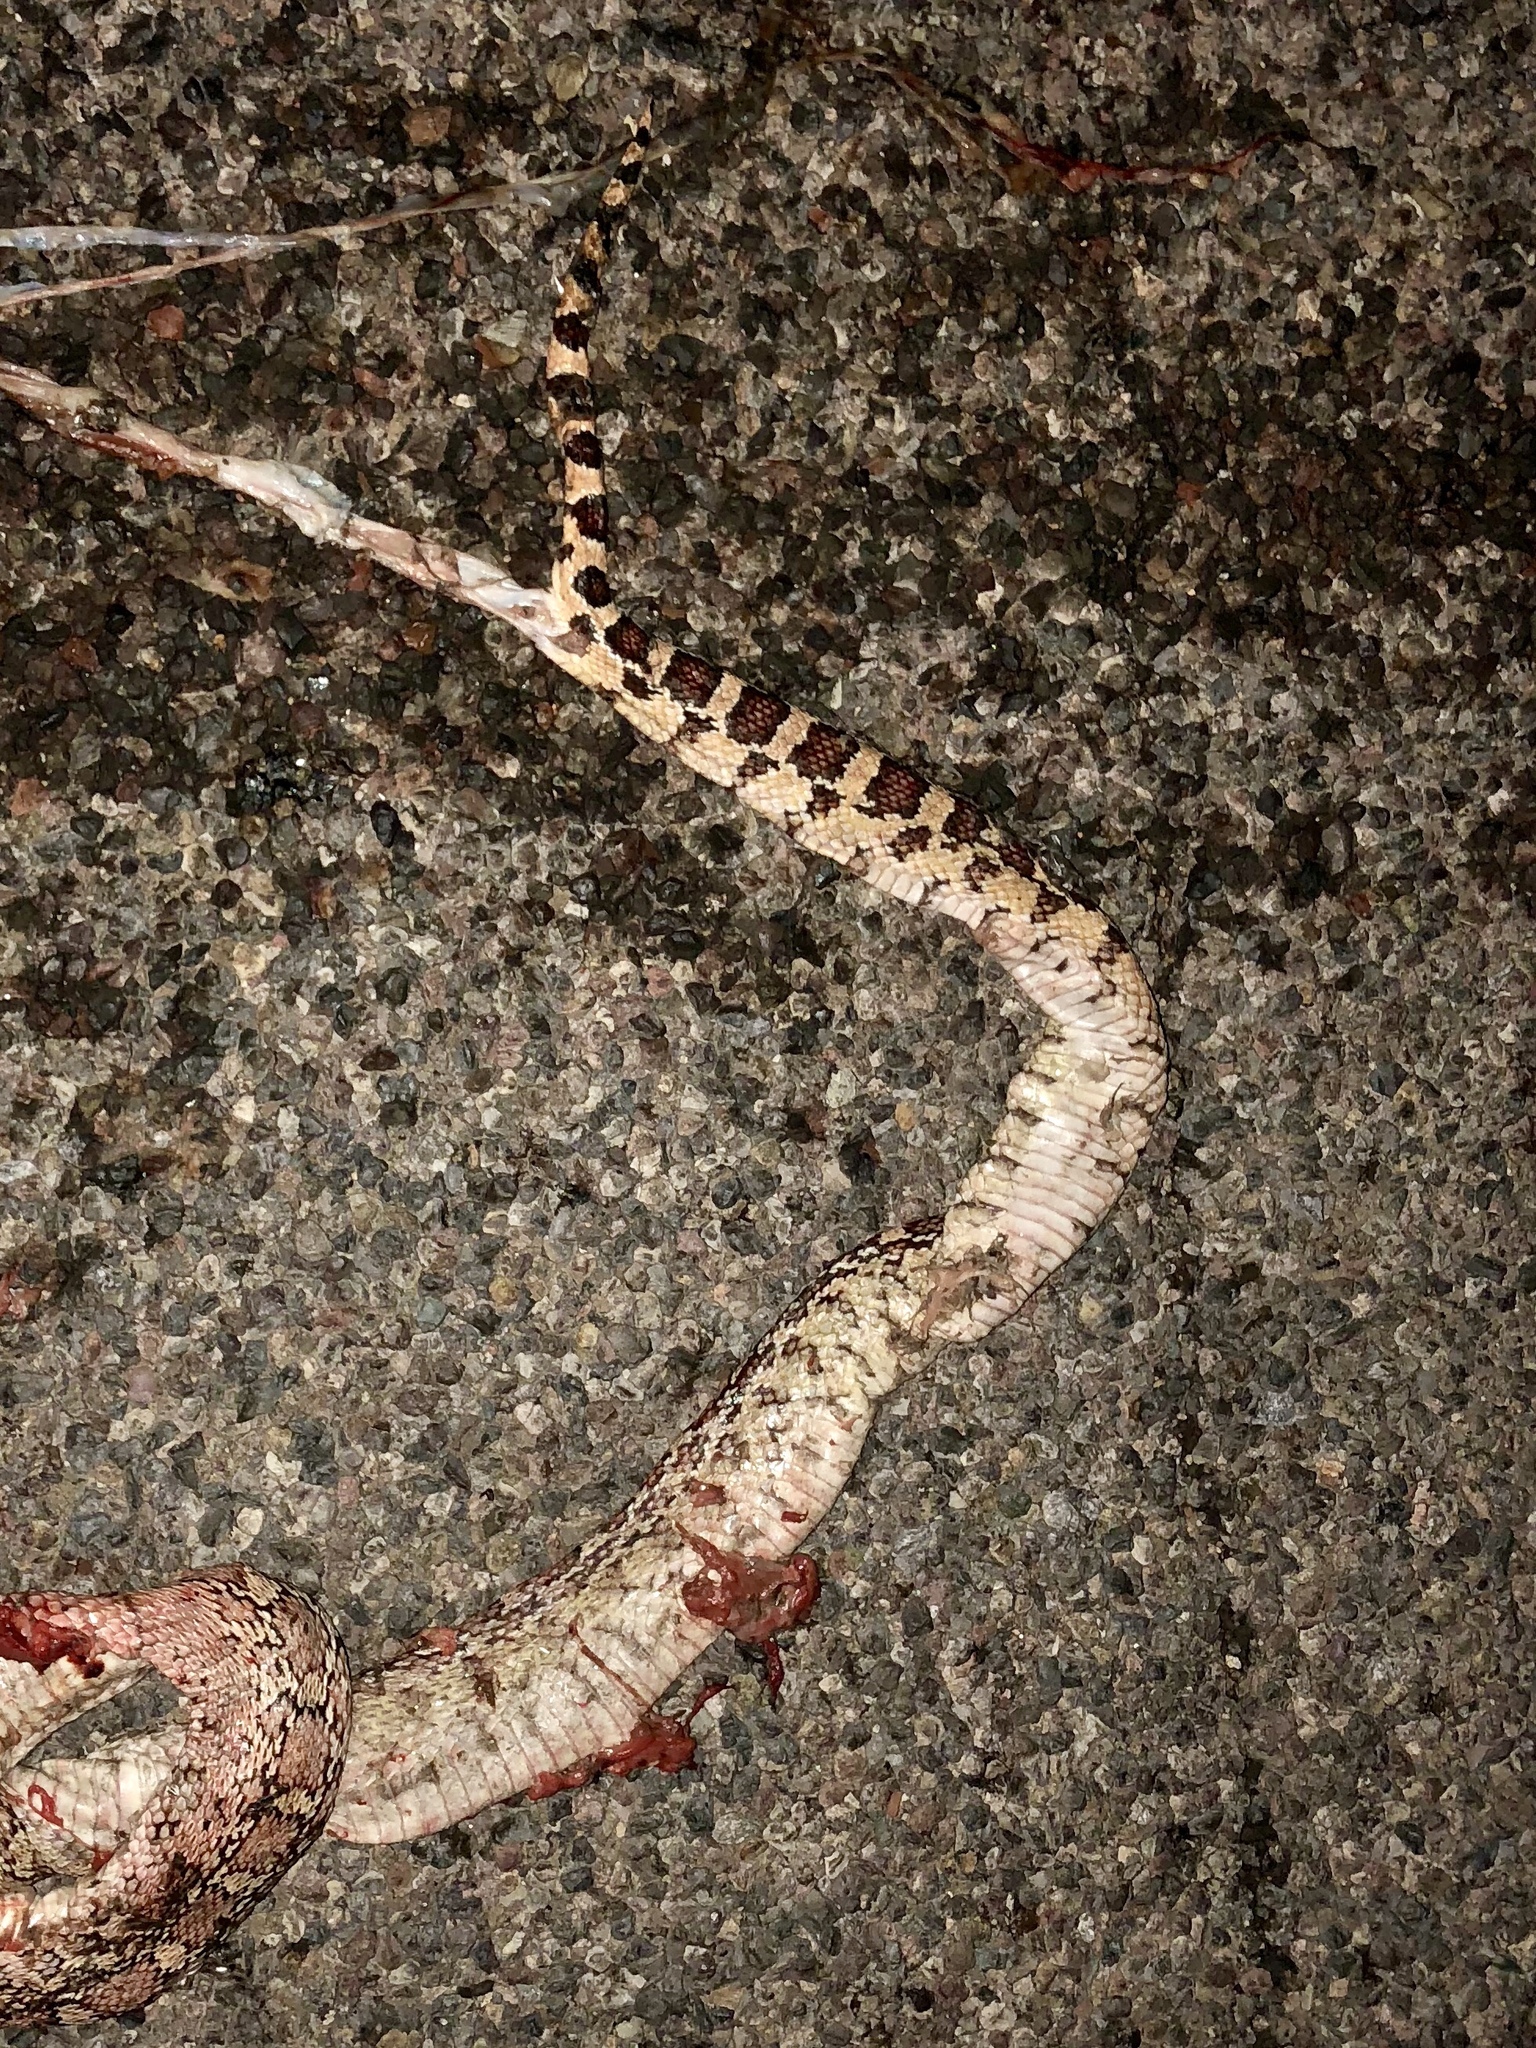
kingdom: Animalia
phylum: Chordata
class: Squamata
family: Colubridae
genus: Pituophis
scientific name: Pituophis catenifer
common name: Gopher snake
